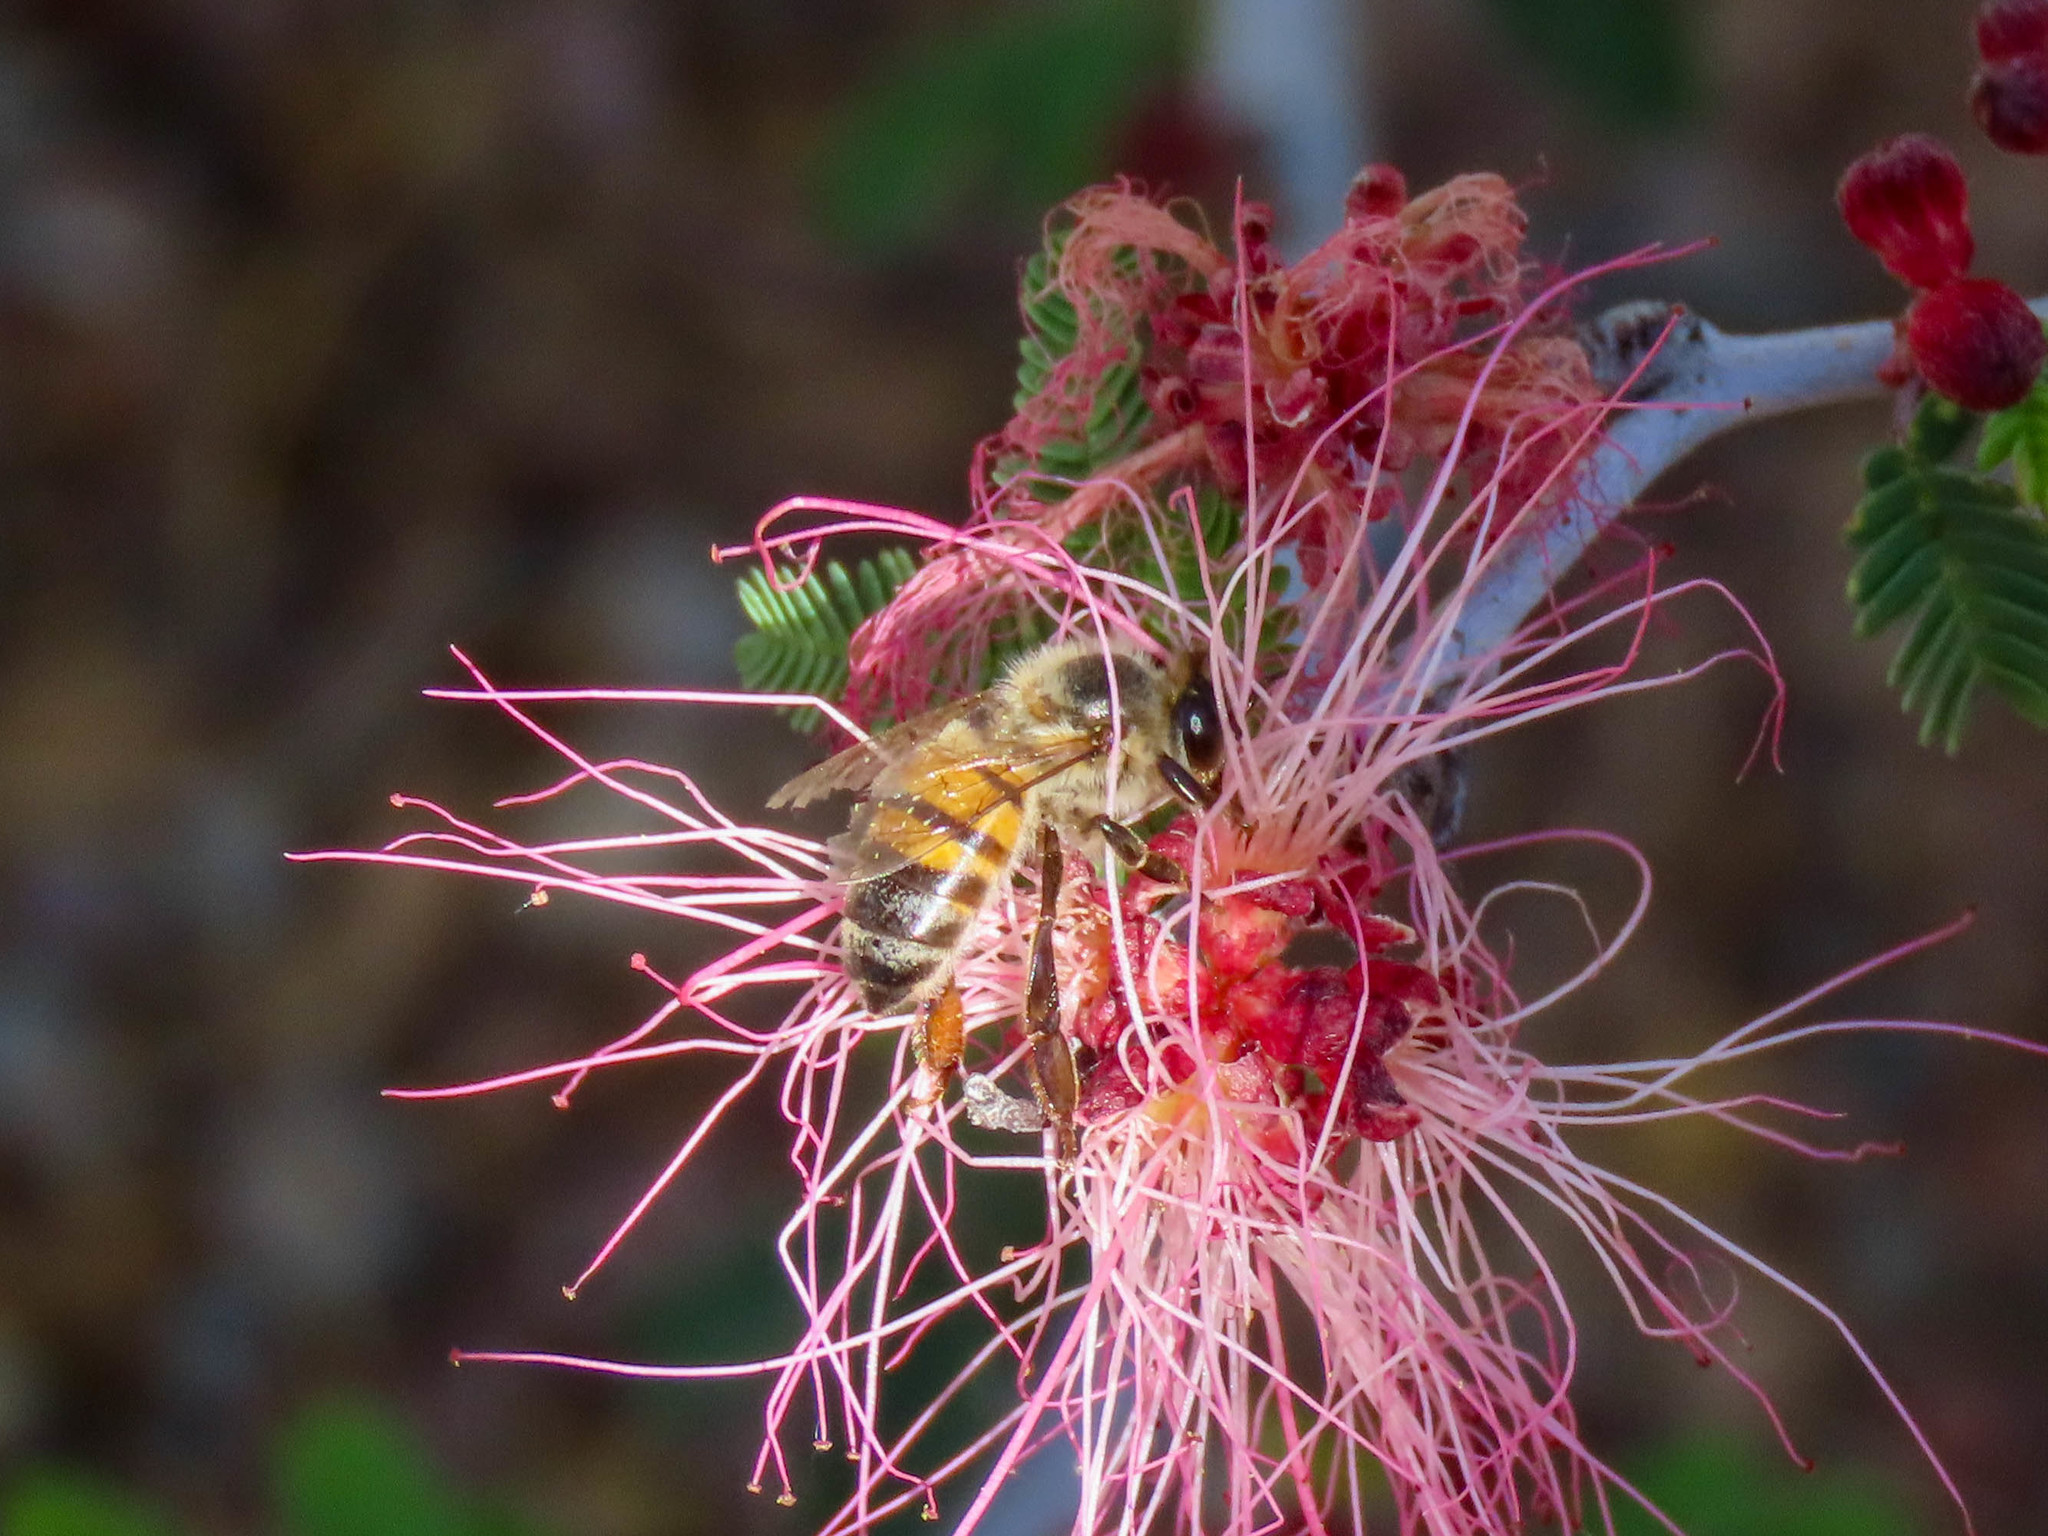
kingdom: Animalia
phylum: Arthropoda
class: Insecta
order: Hymenoptera
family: Apidae
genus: Apis
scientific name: Apis mellifera
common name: Honey bee
